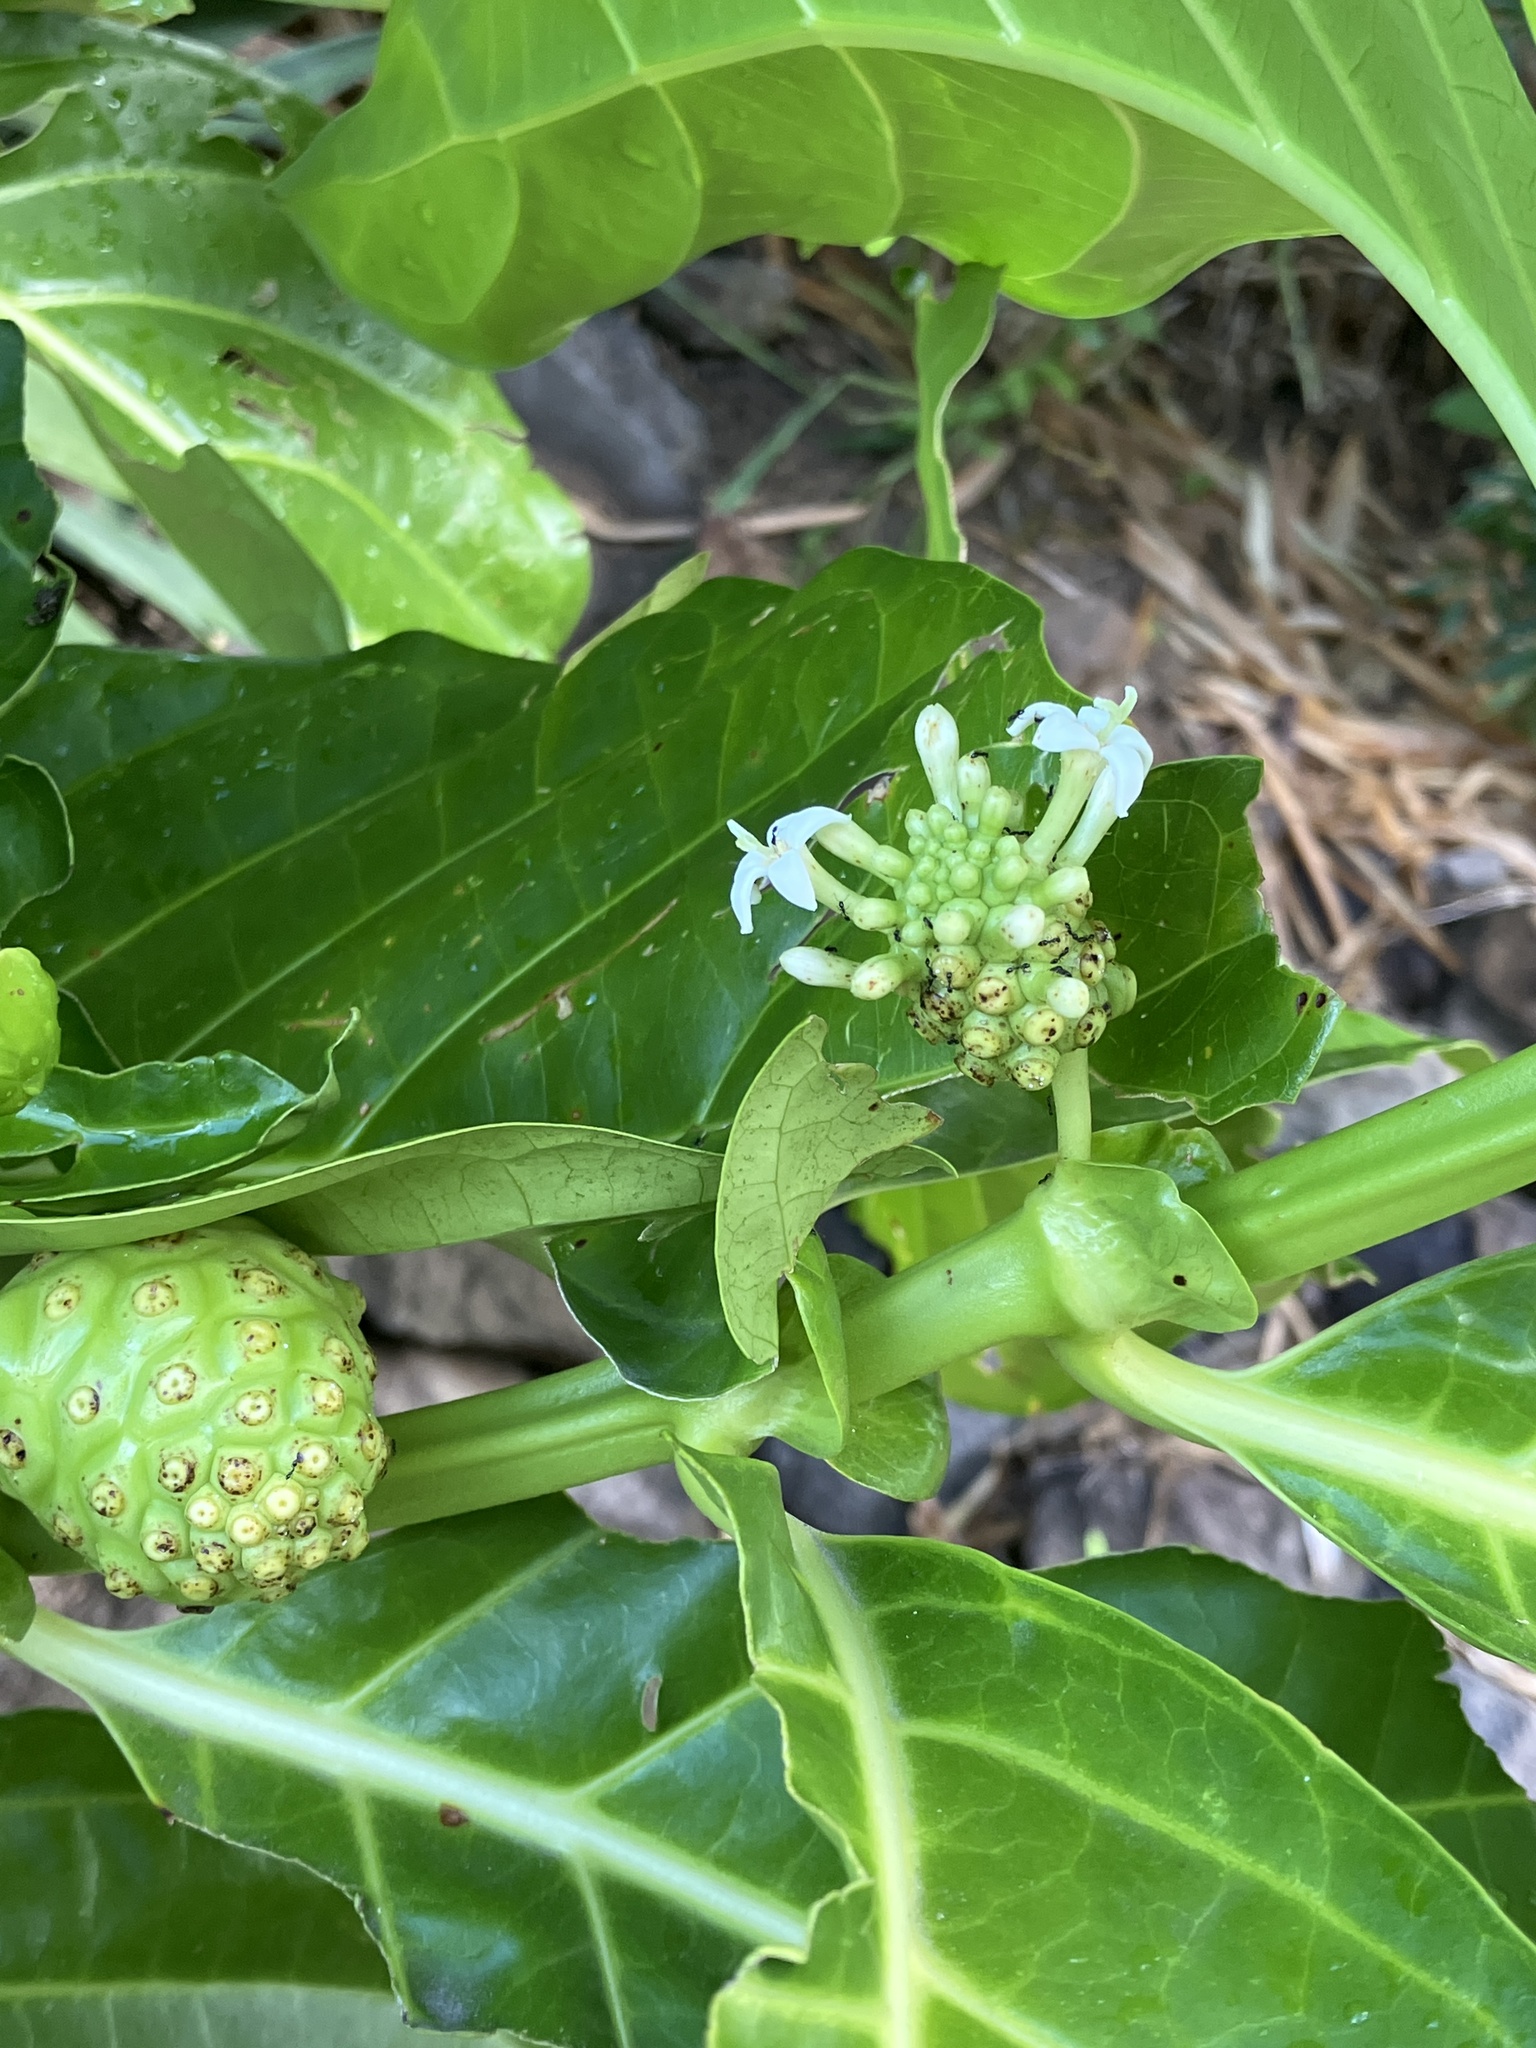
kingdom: Plantae
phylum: Tracheophyta
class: Magnoliopsida
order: Gentianales
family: Rubiaceae
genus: Morinda
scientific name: Morinda citrifolia
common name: Indian-mulberry
